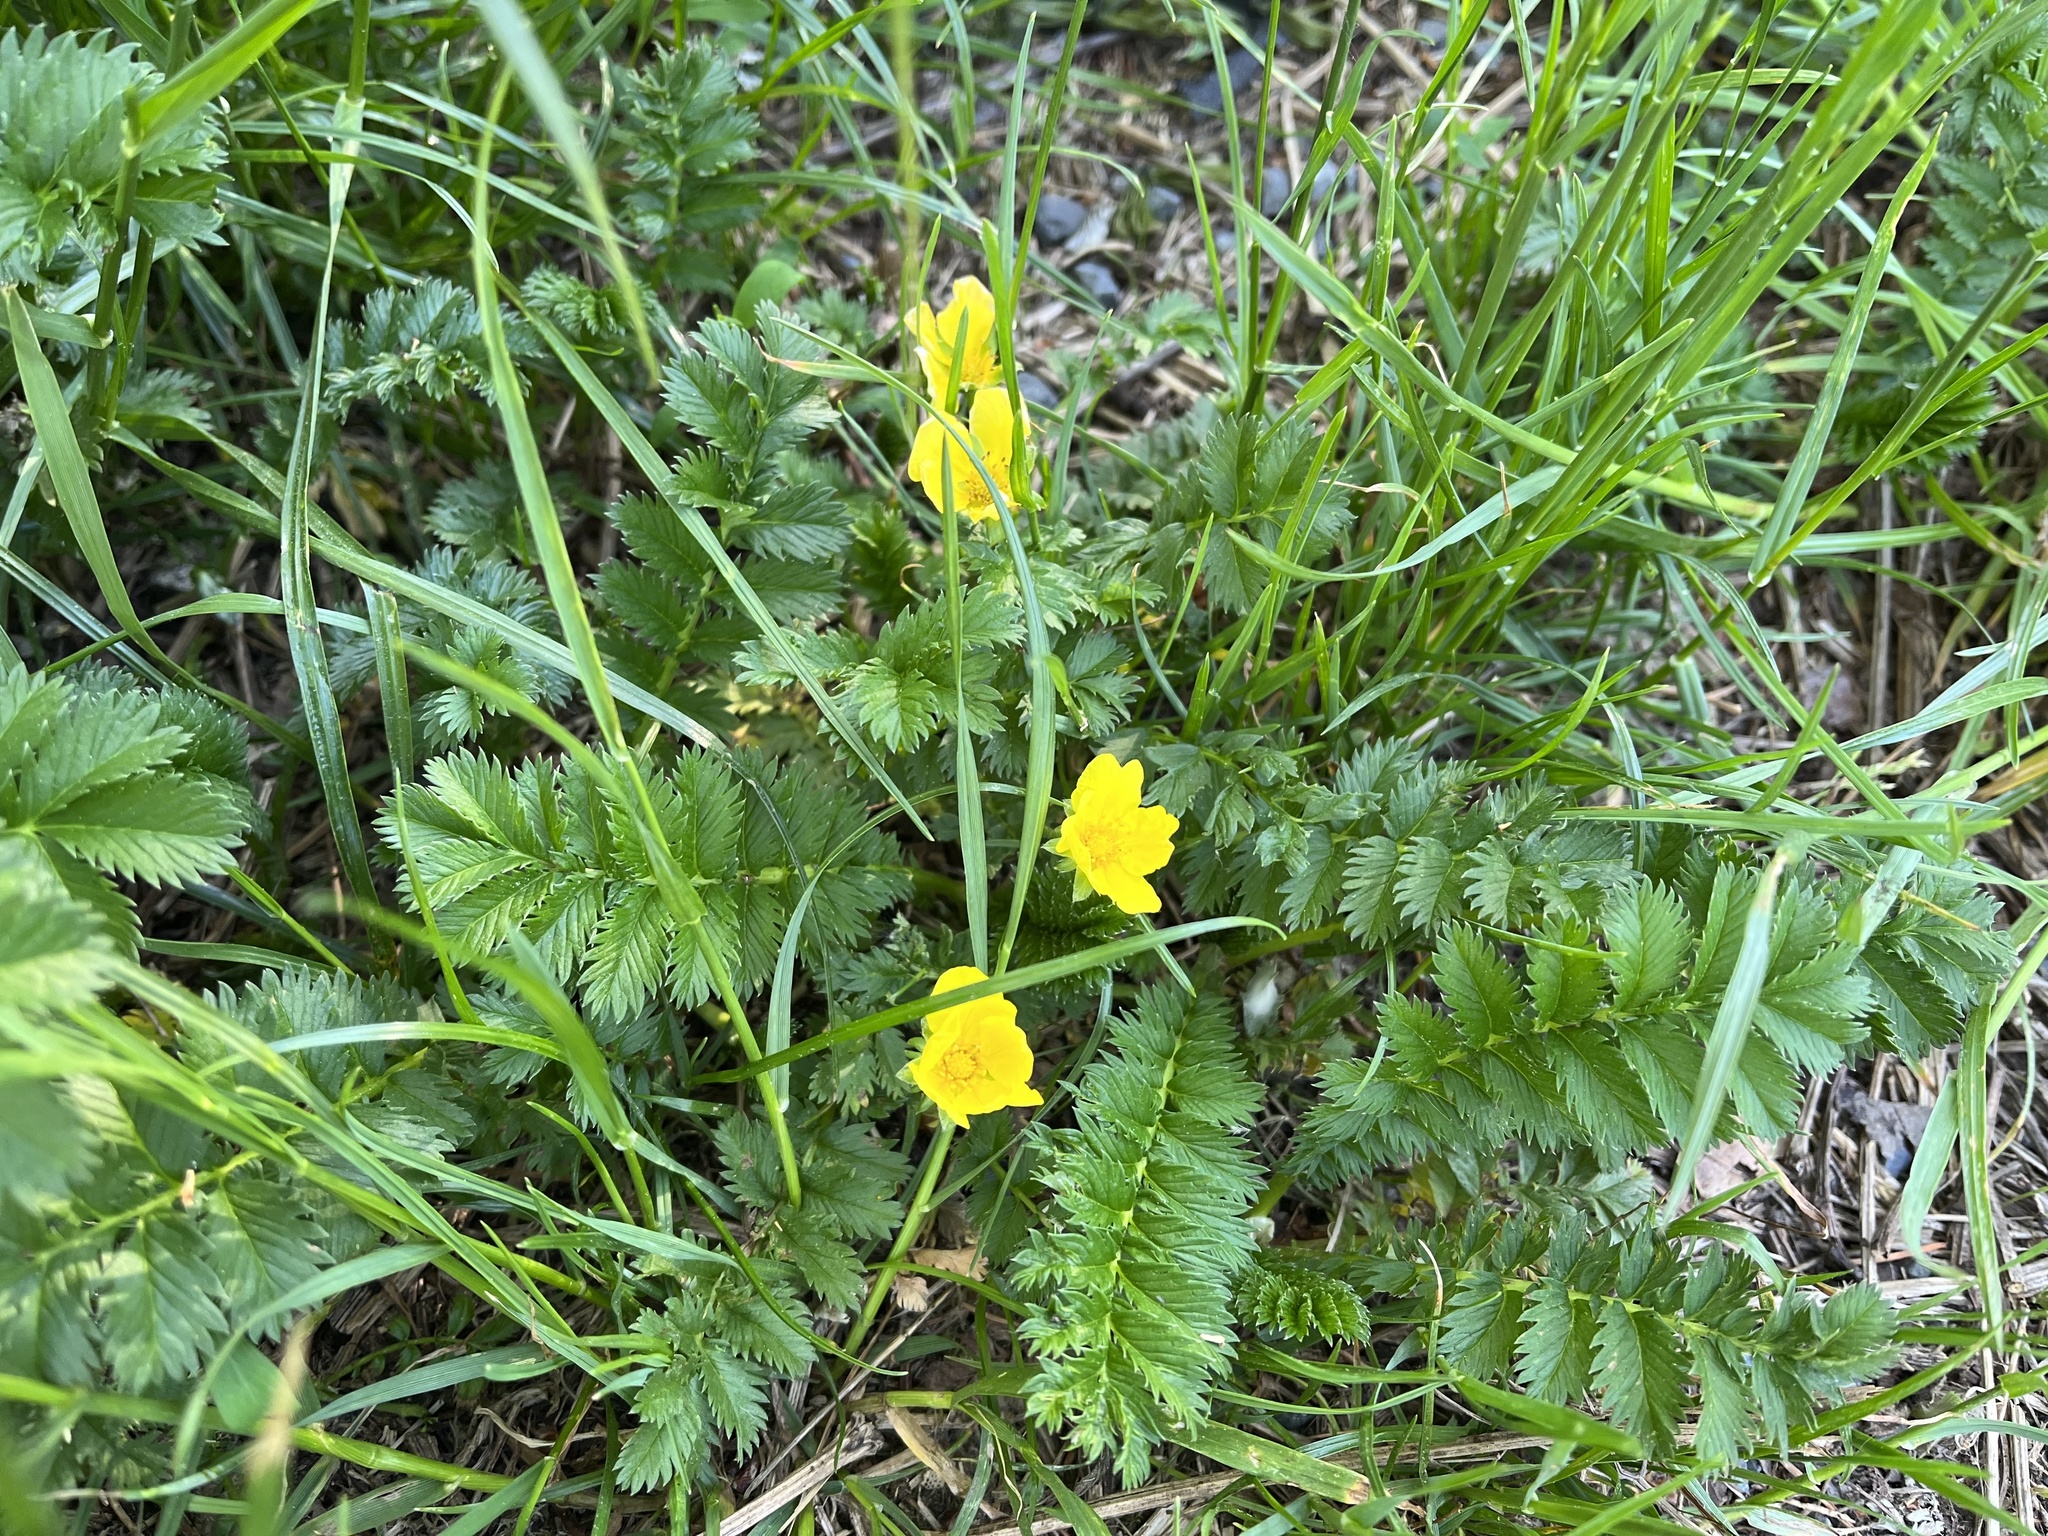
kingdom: Plantae
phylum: Tracheophyta
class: Magnoliopsida
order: Rosales
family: Rosaceae
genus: Argentina
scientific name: Argentina anserina
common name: Common silverweed
